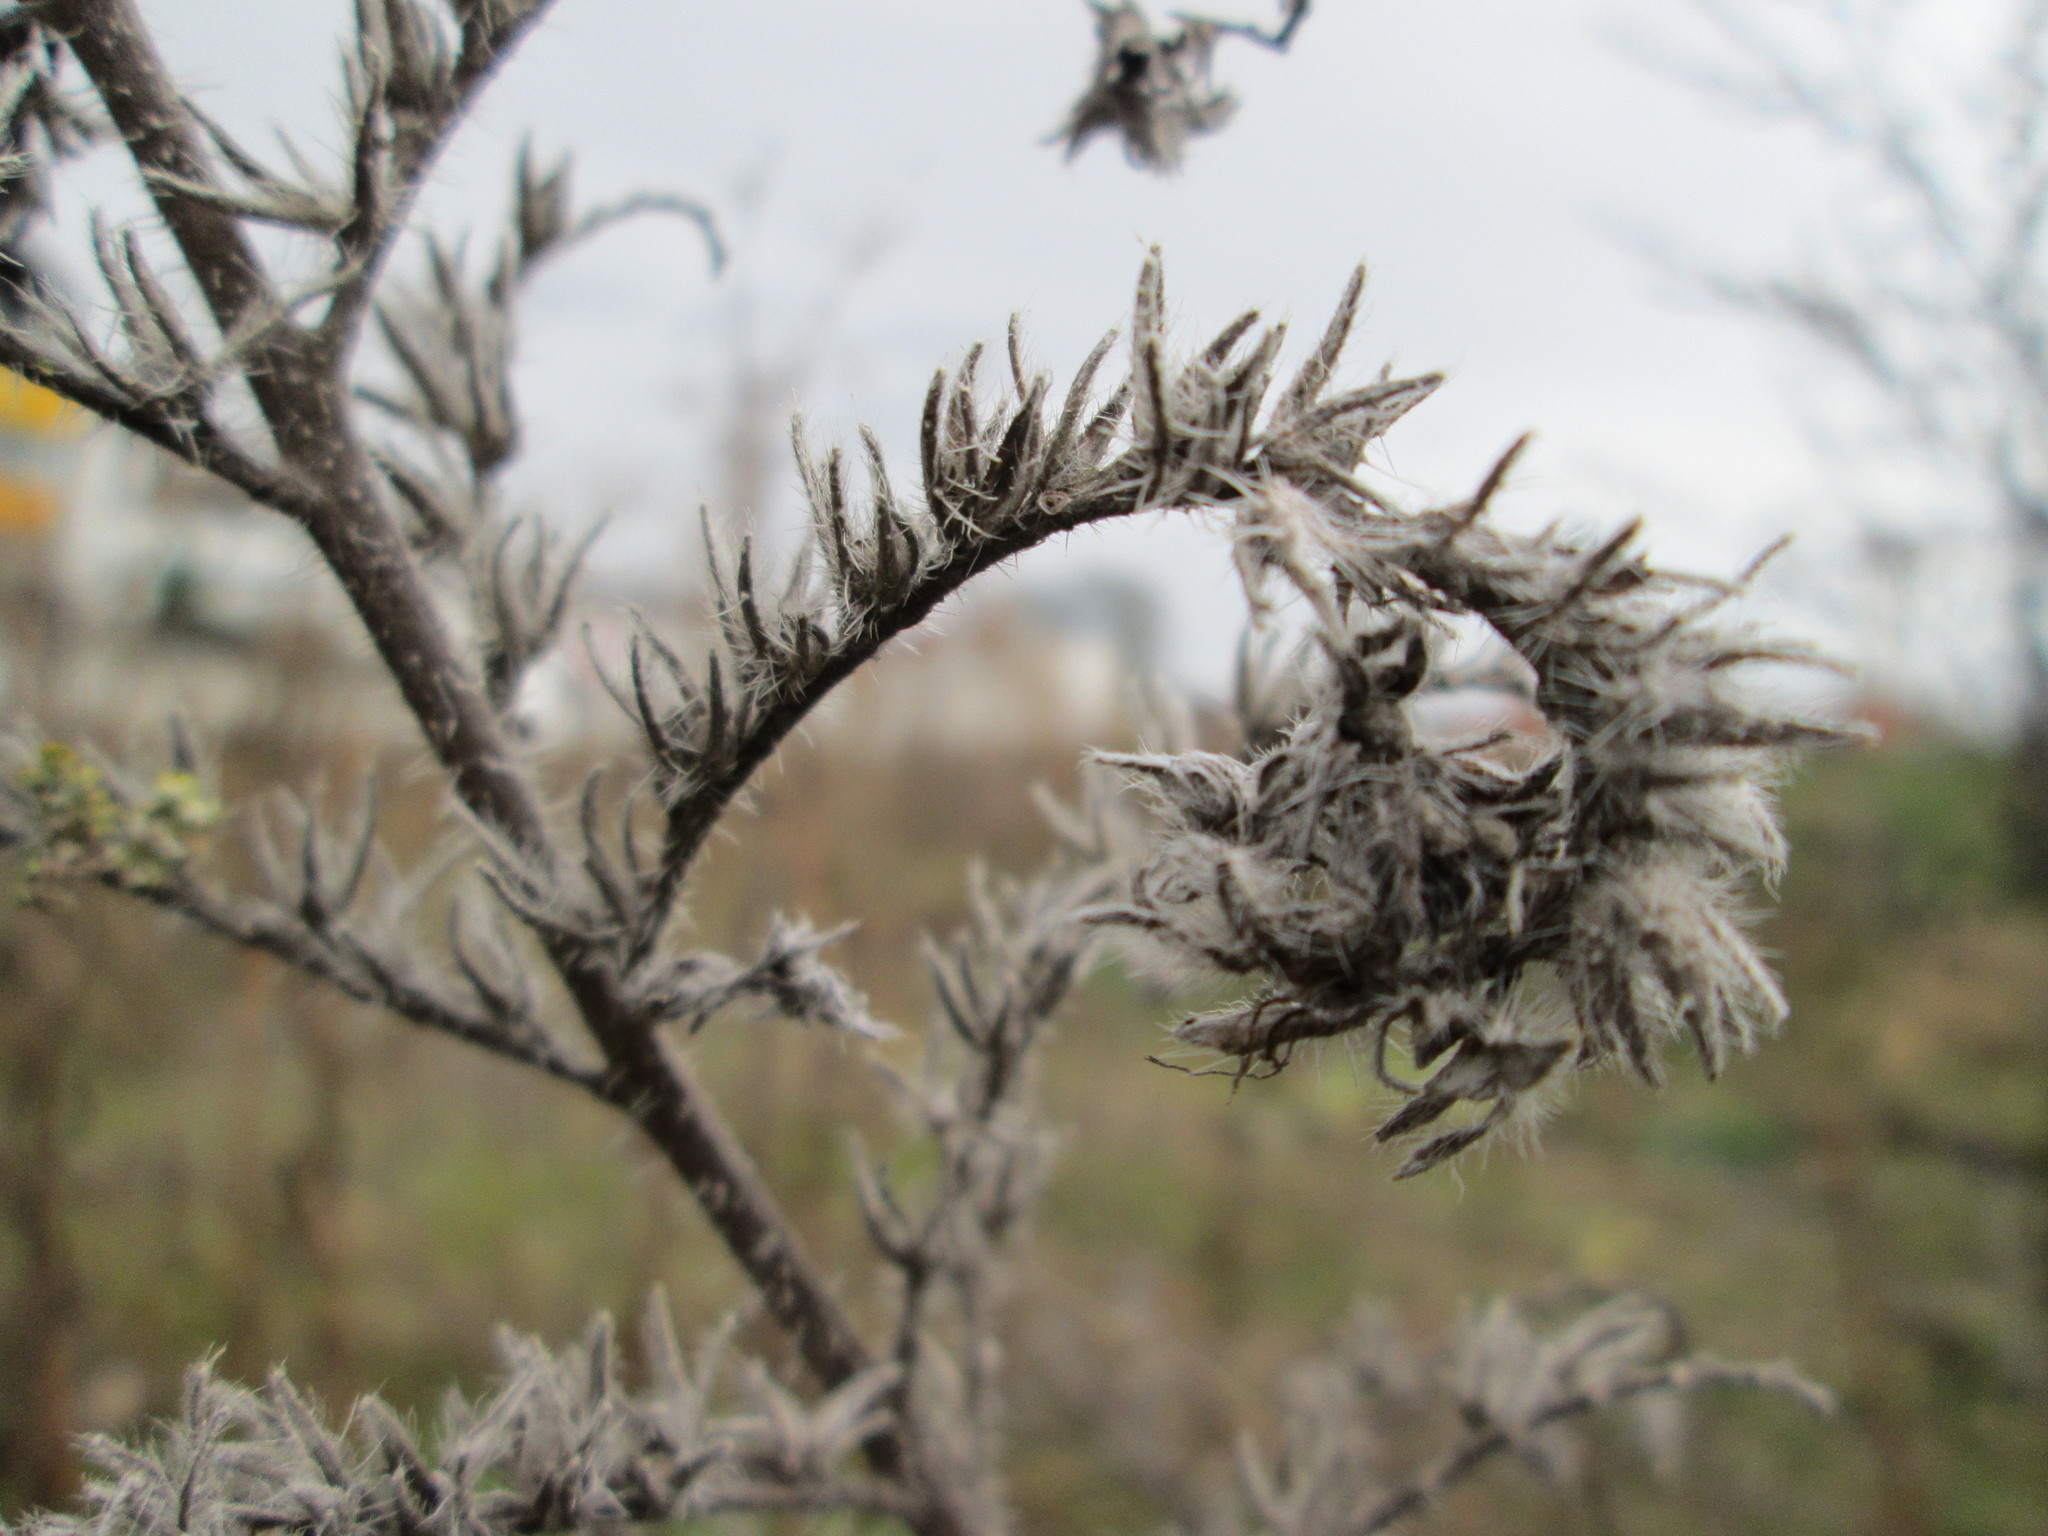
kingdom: Plantae
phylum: Tracheophyta
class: Magnoliopsida
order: Boraginales
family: Boraginaceae
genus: Echium
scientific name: Echium vulgare
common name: Common viper's bugloss
